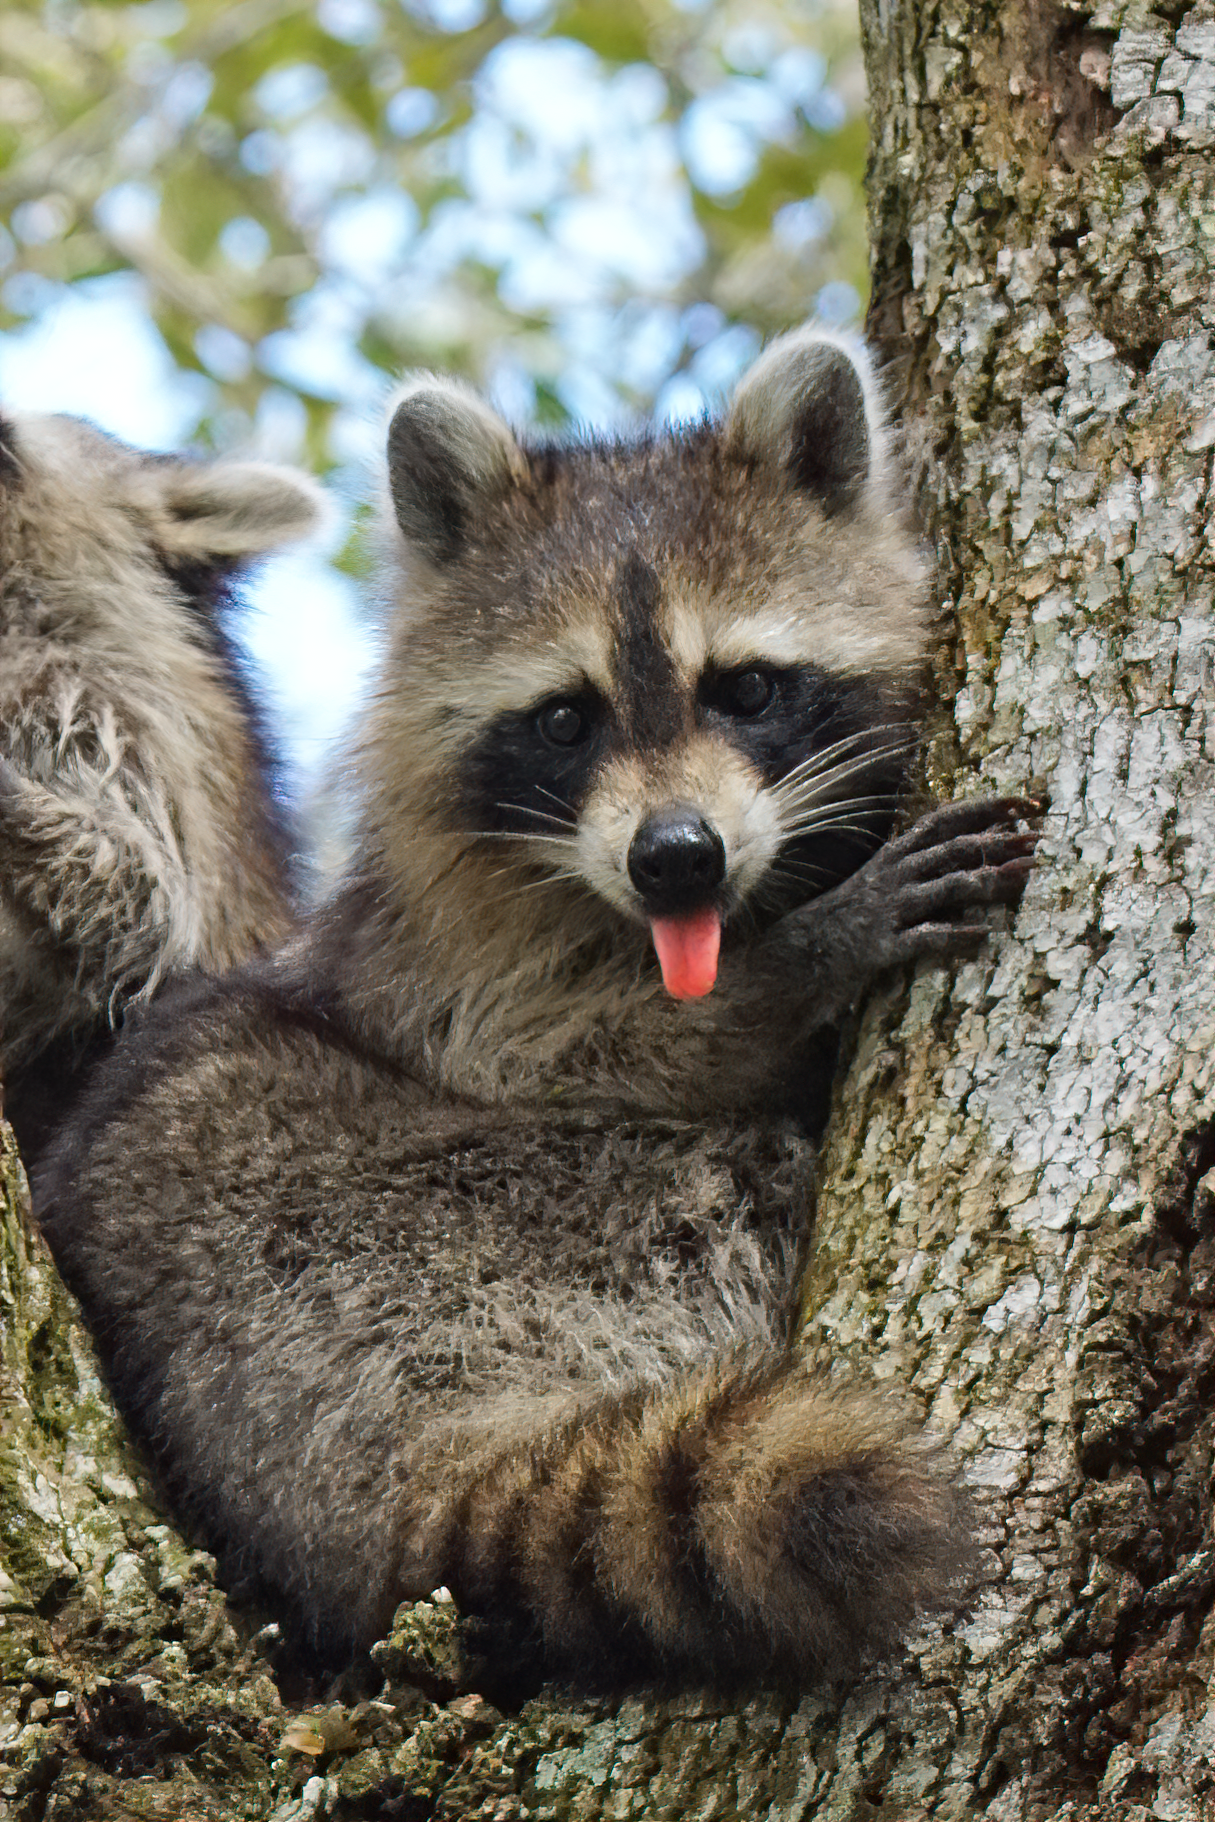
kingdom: Animalia
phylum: Chordata
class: Mammalia
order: Carnivora
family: Procyonidae
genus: Procyon
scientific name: Procyon lotor
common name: Raccoon
